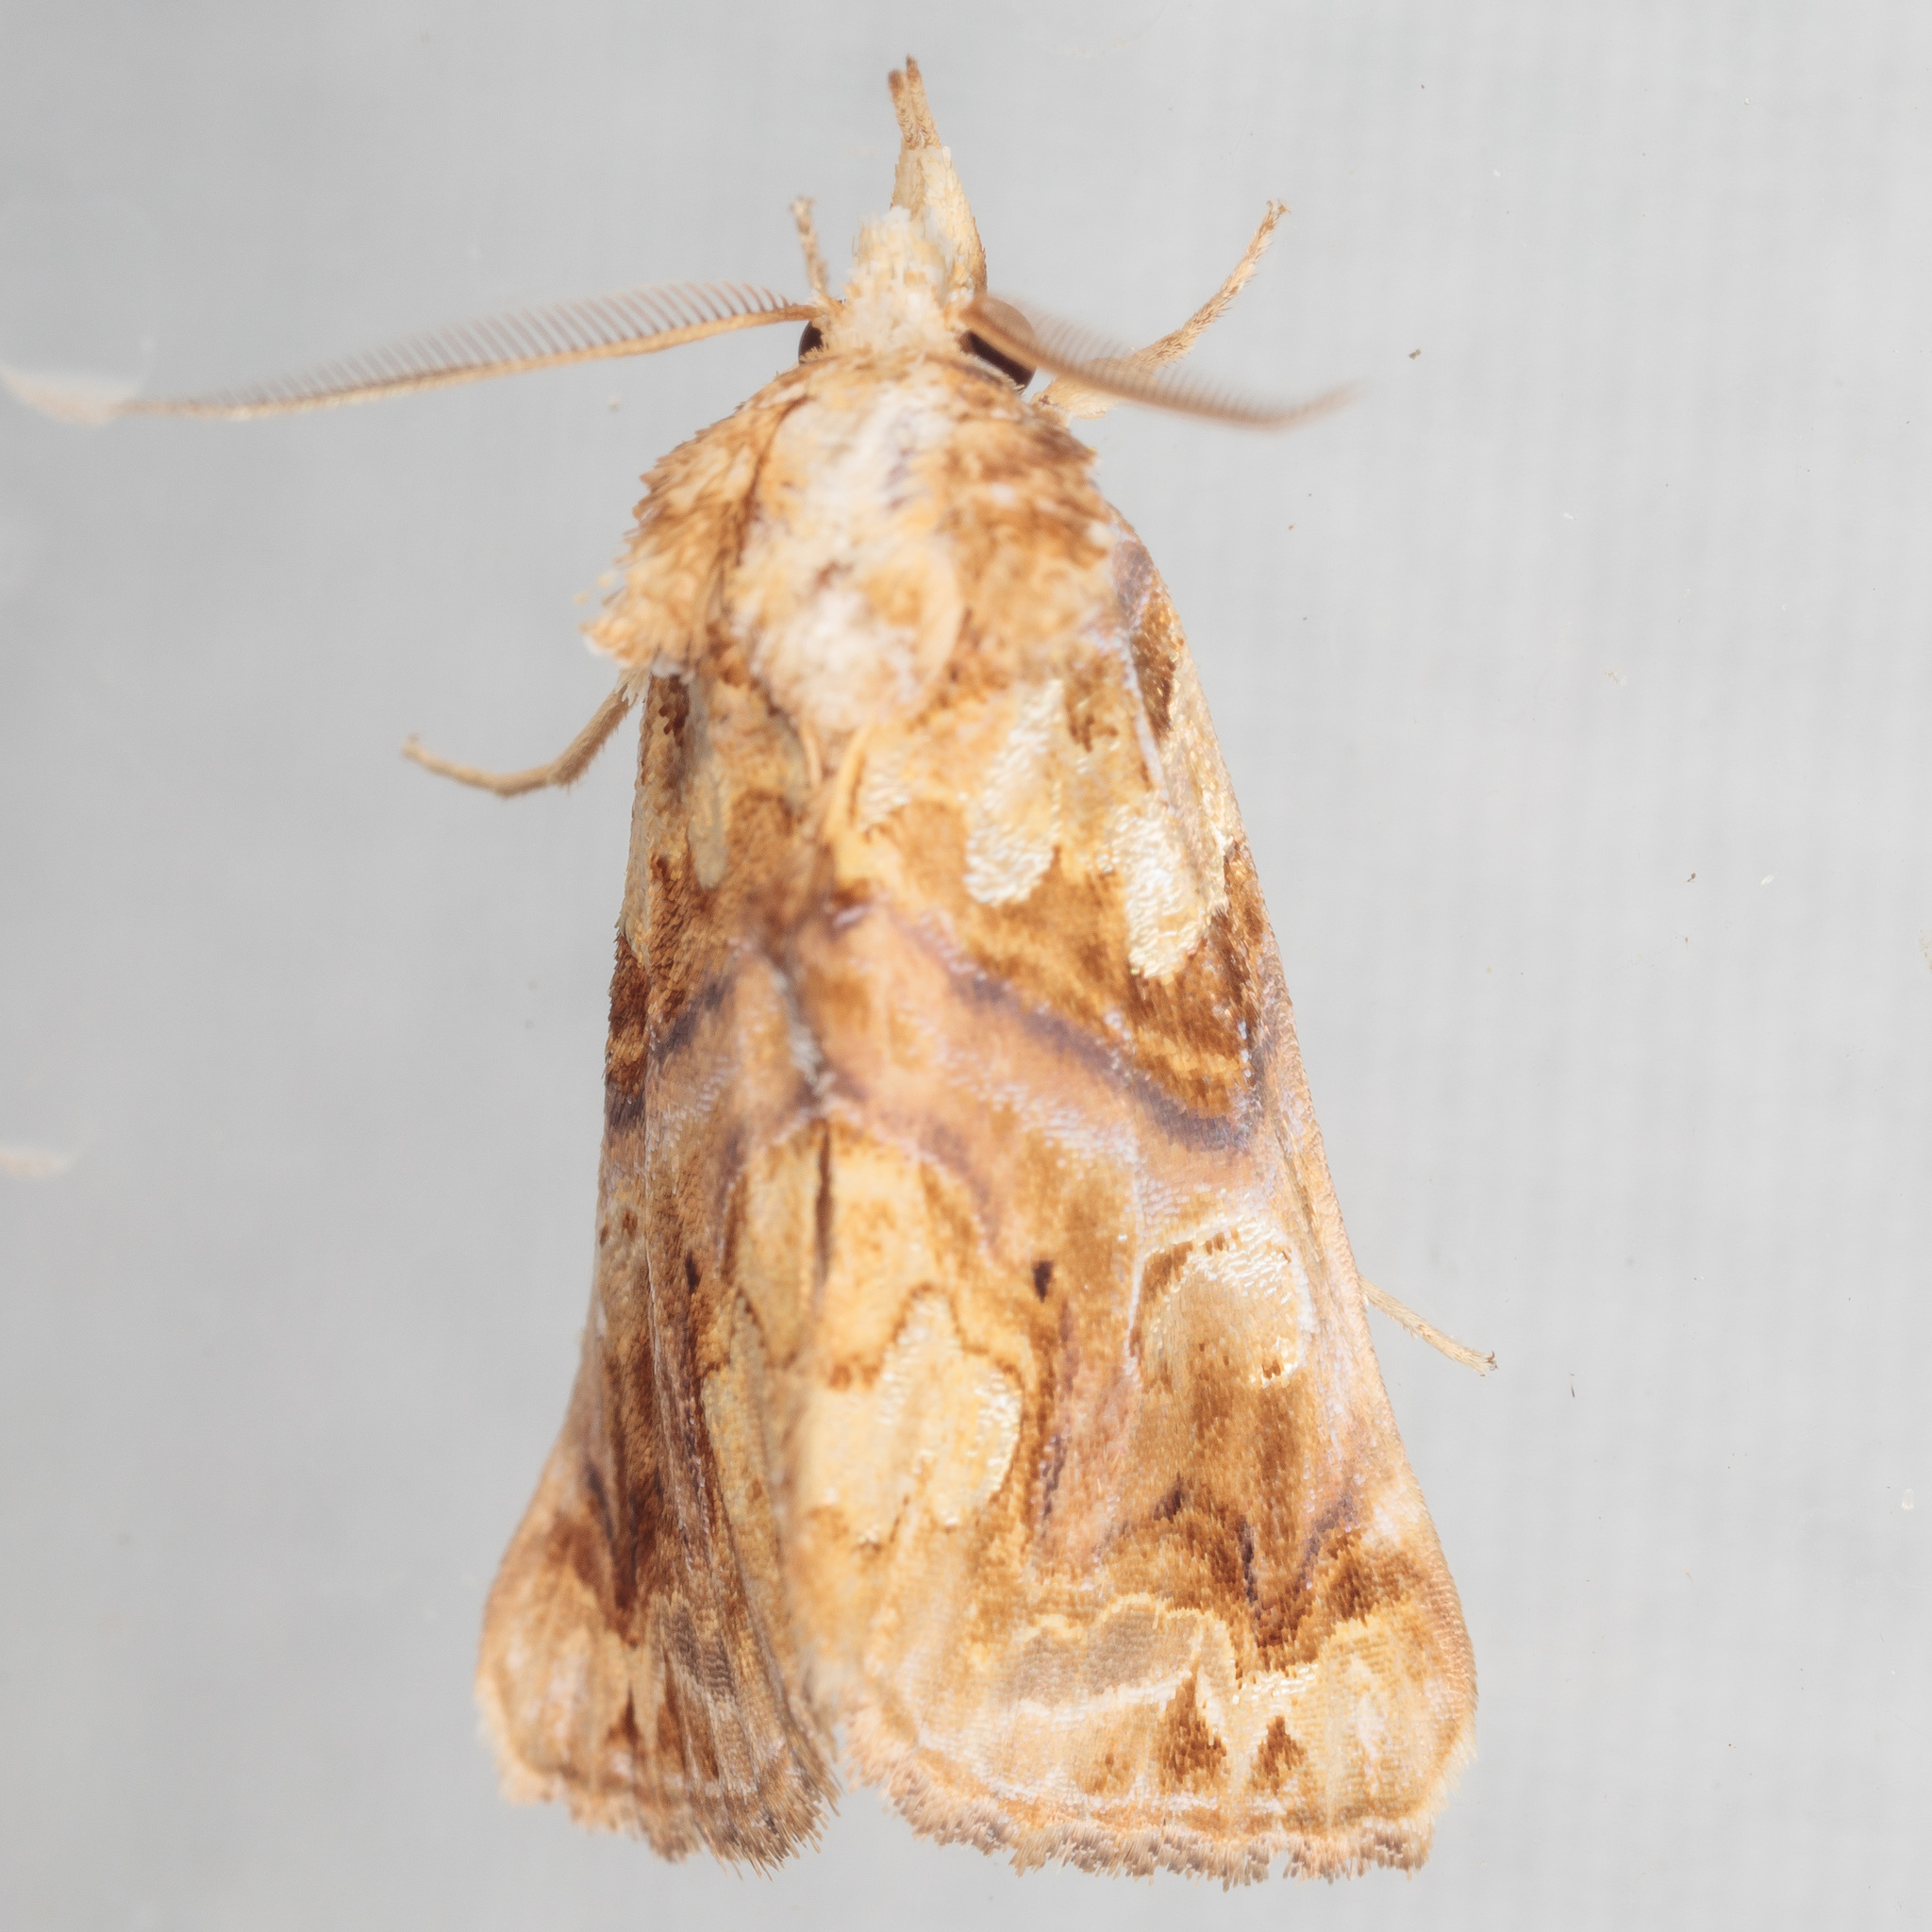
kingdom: Animalia
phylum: Arthropoda
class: Insecta
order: Lepidoptera
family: Erebidae
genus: Plusiodonta
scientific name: Plusiodonta compressipalpis
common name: Moonseed moth
